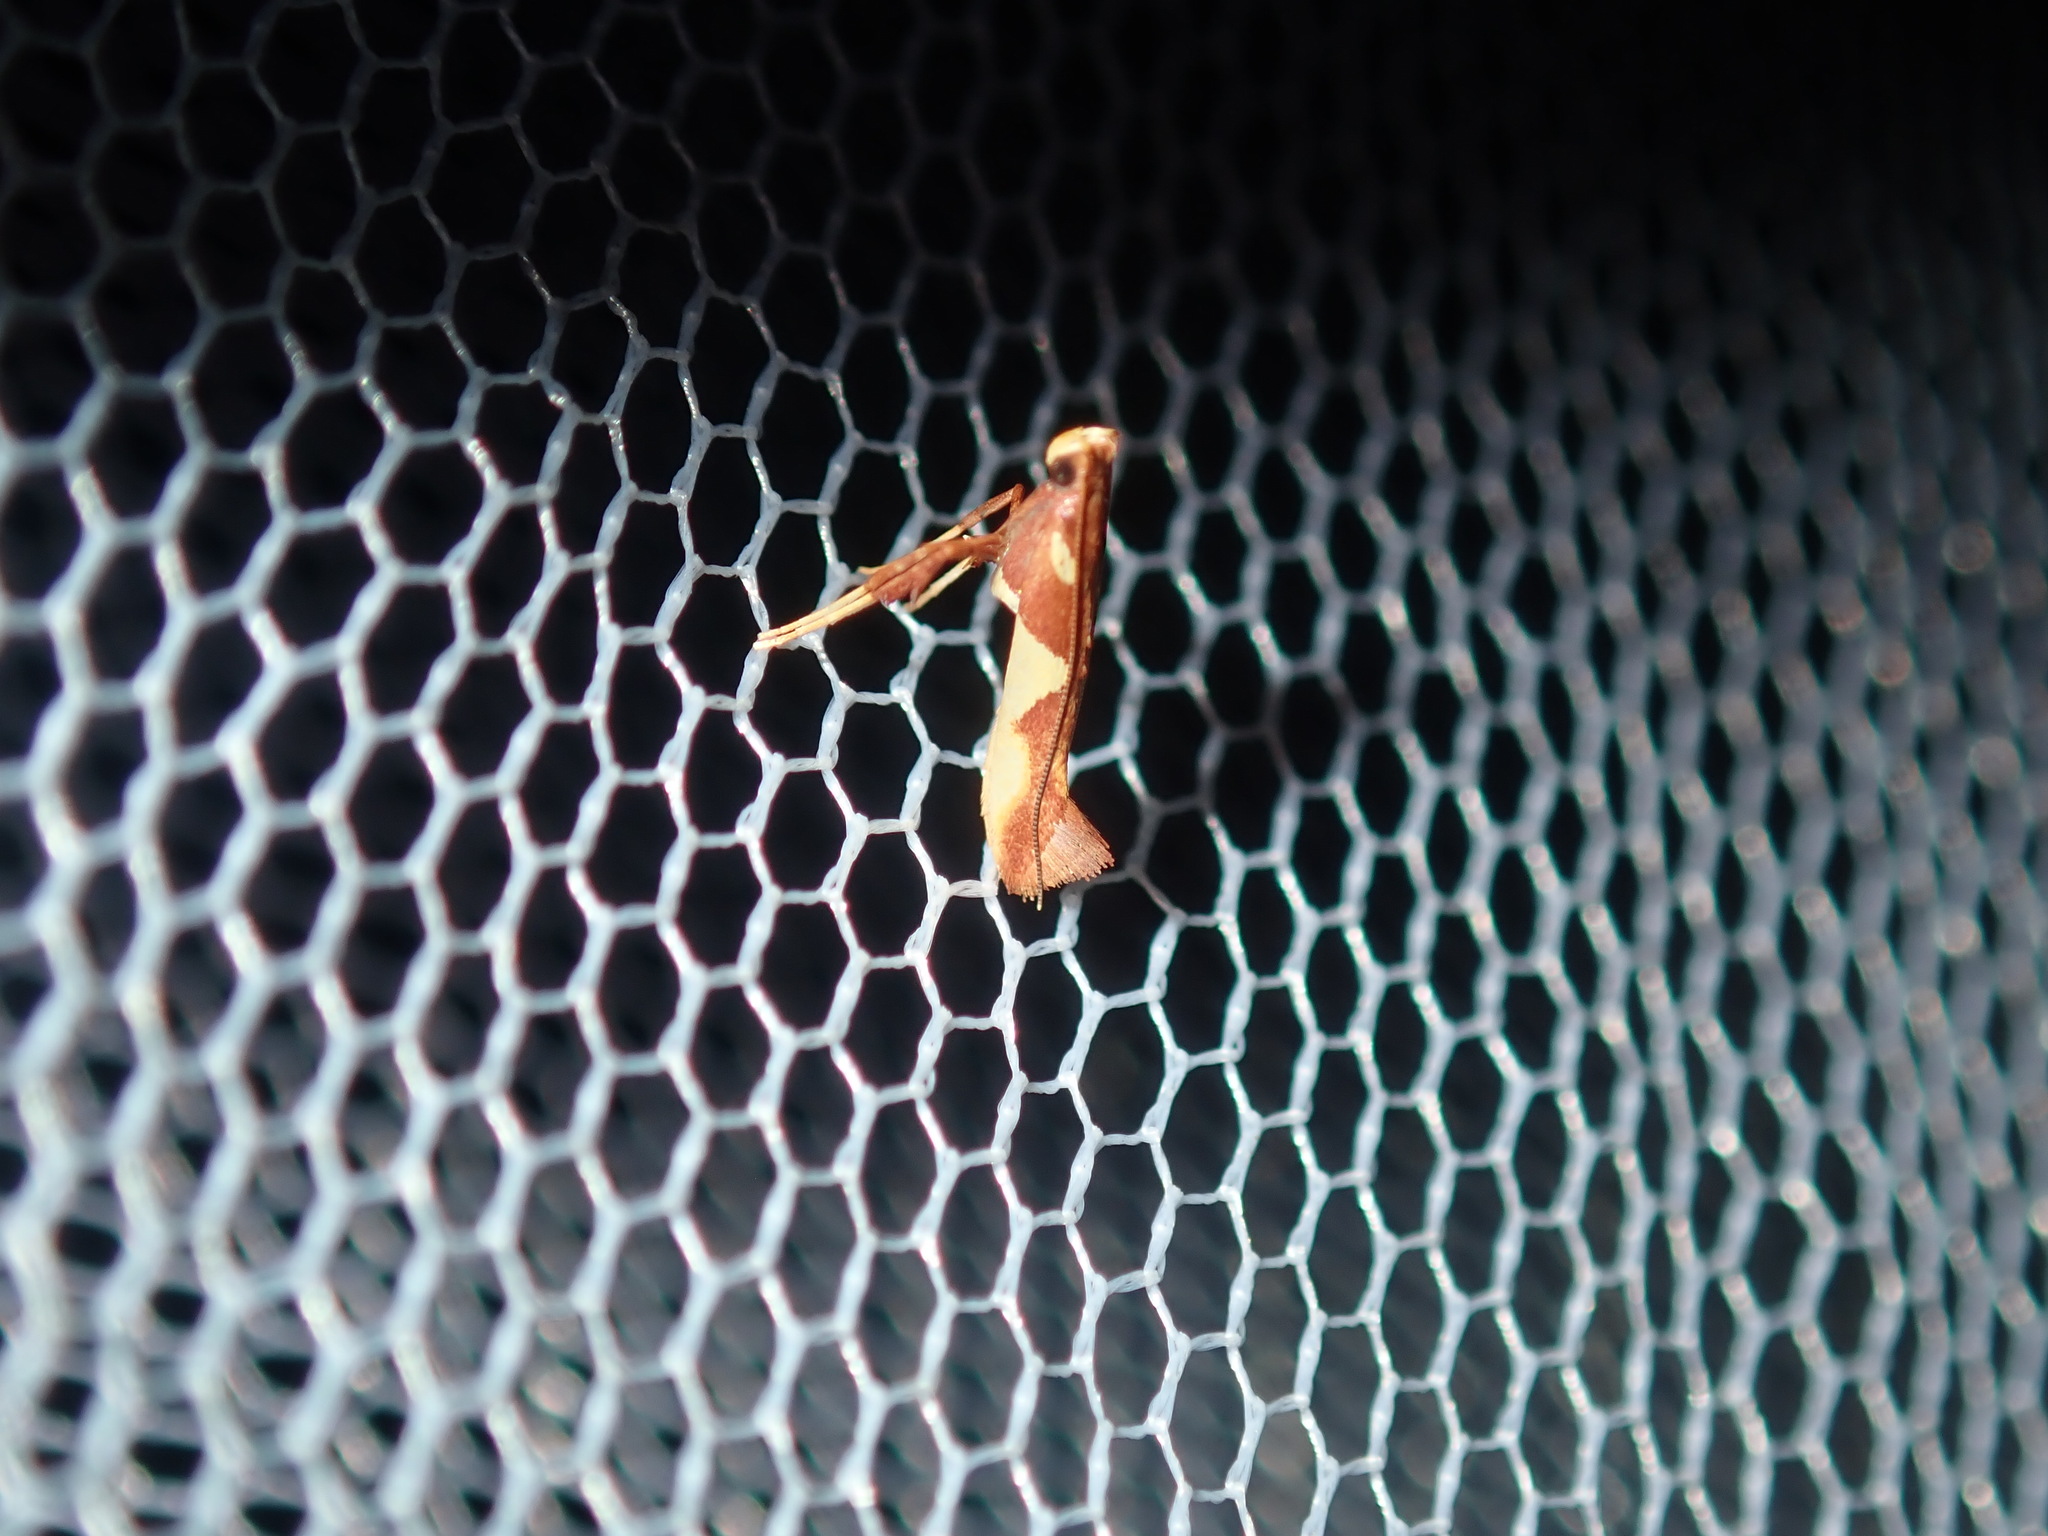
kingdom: Animalia
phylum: Arthropoda
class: Insecta
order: Lepidoptera
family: Gracillariidae
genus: Caloptilia
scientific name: Caloptilia xanthopharella
